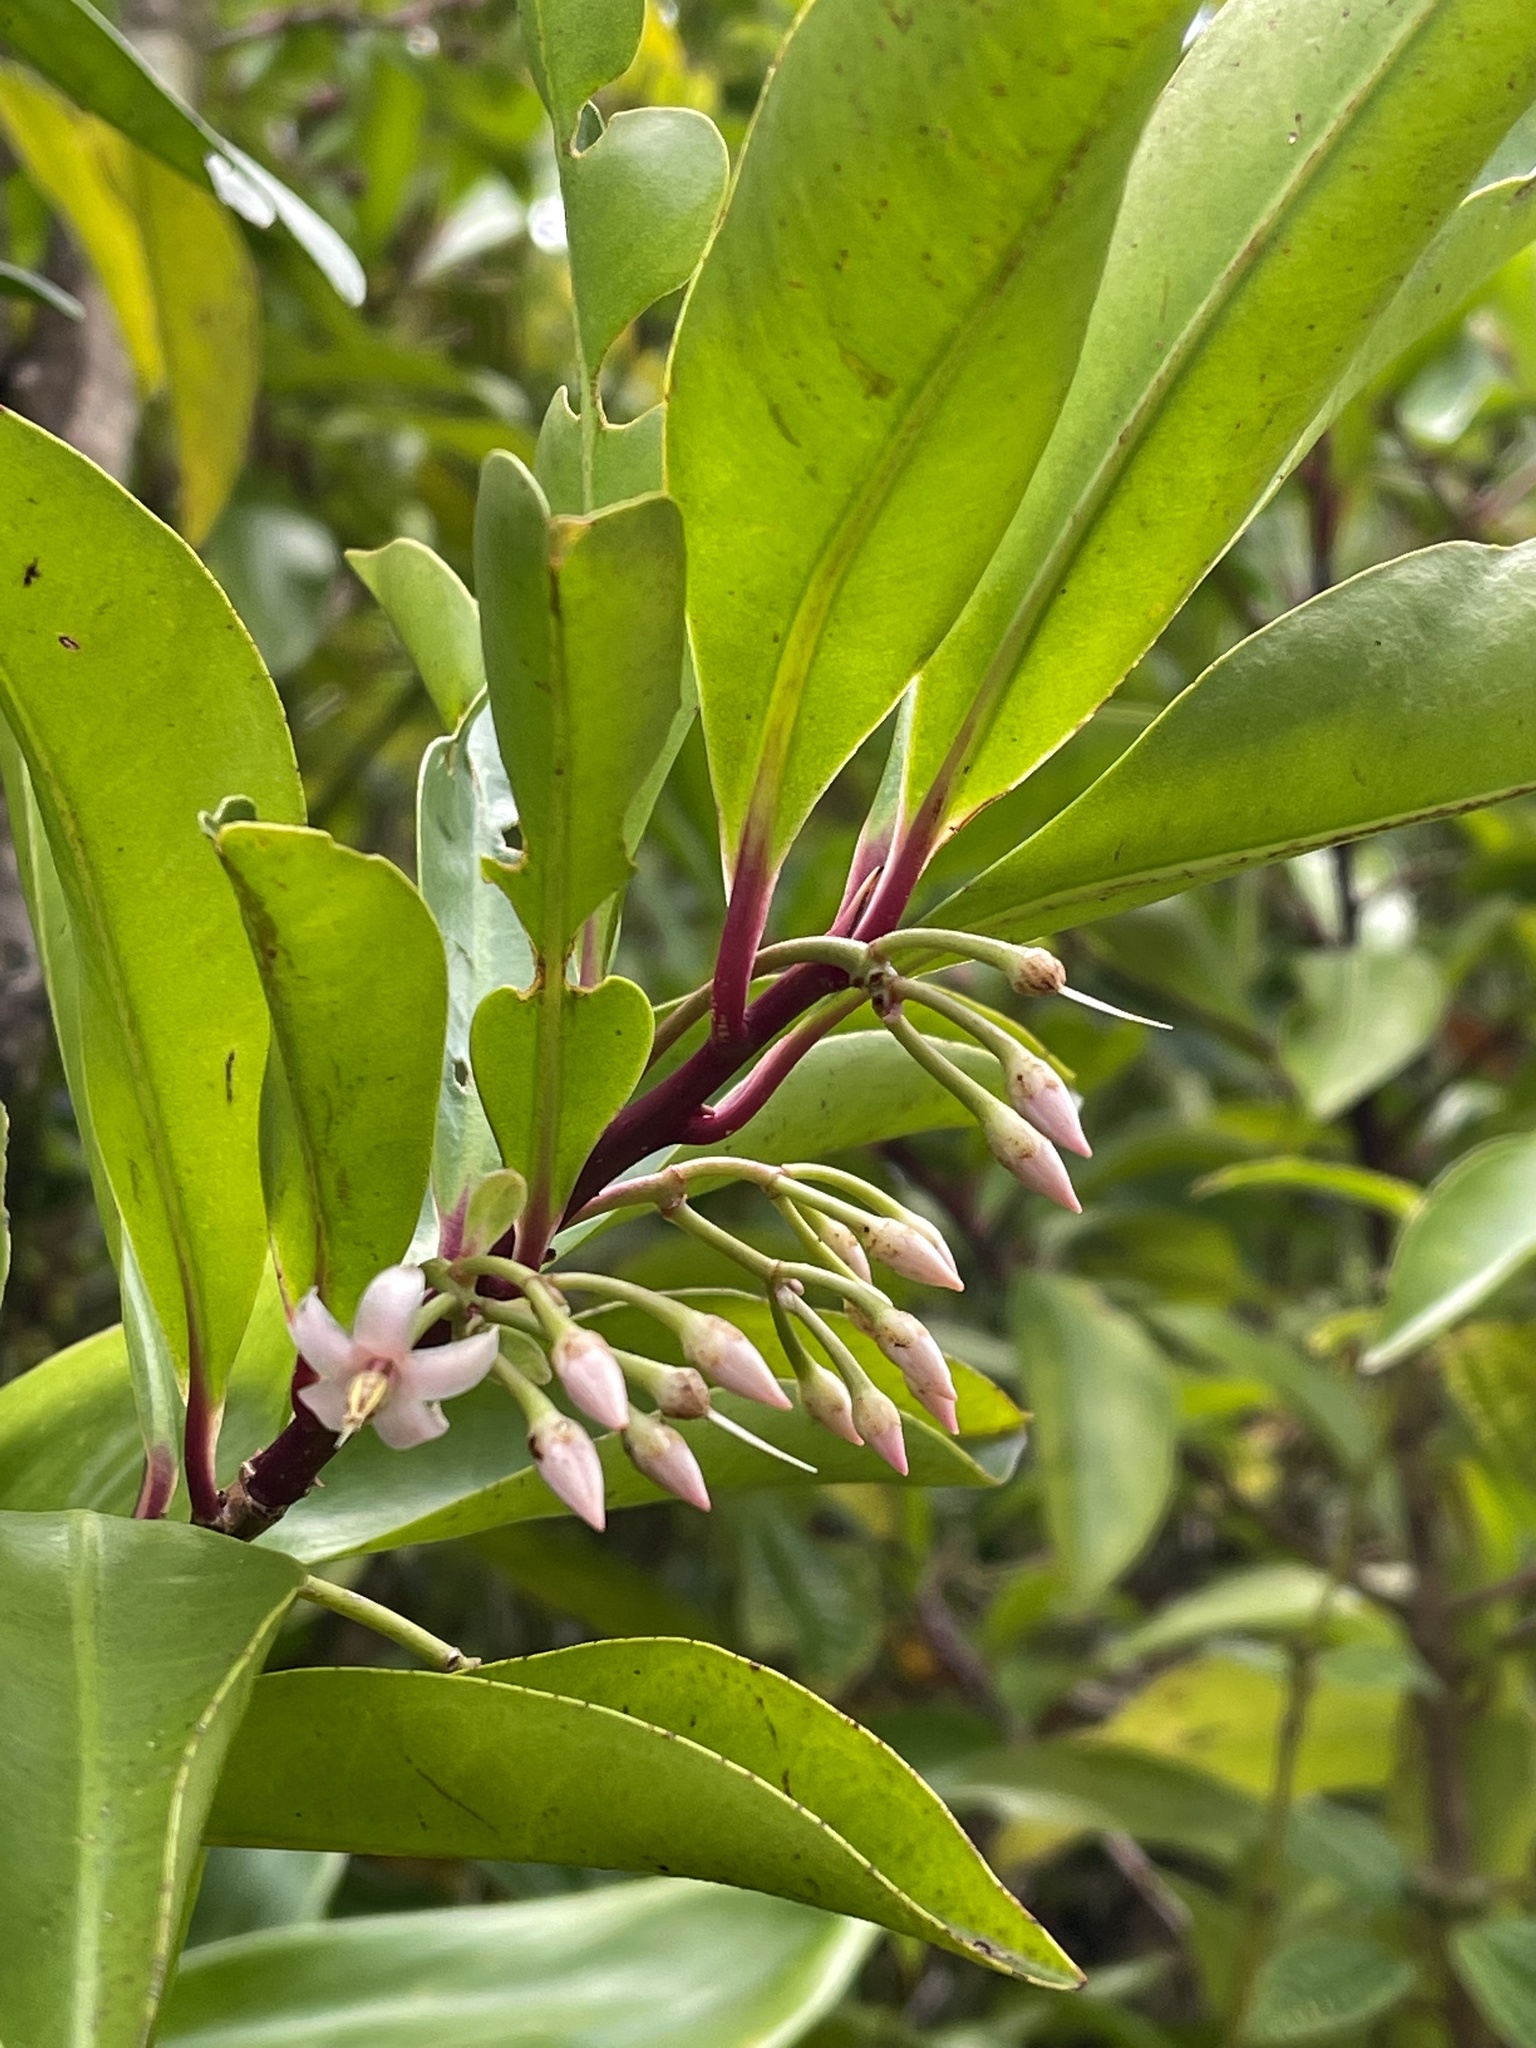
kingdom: Plantae
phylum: Tracheophyta
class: Magnoliopsida
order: Ericales
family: Primulaceae
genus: Ardisia
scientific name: Ardisia elliptica
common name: Shoebutton
